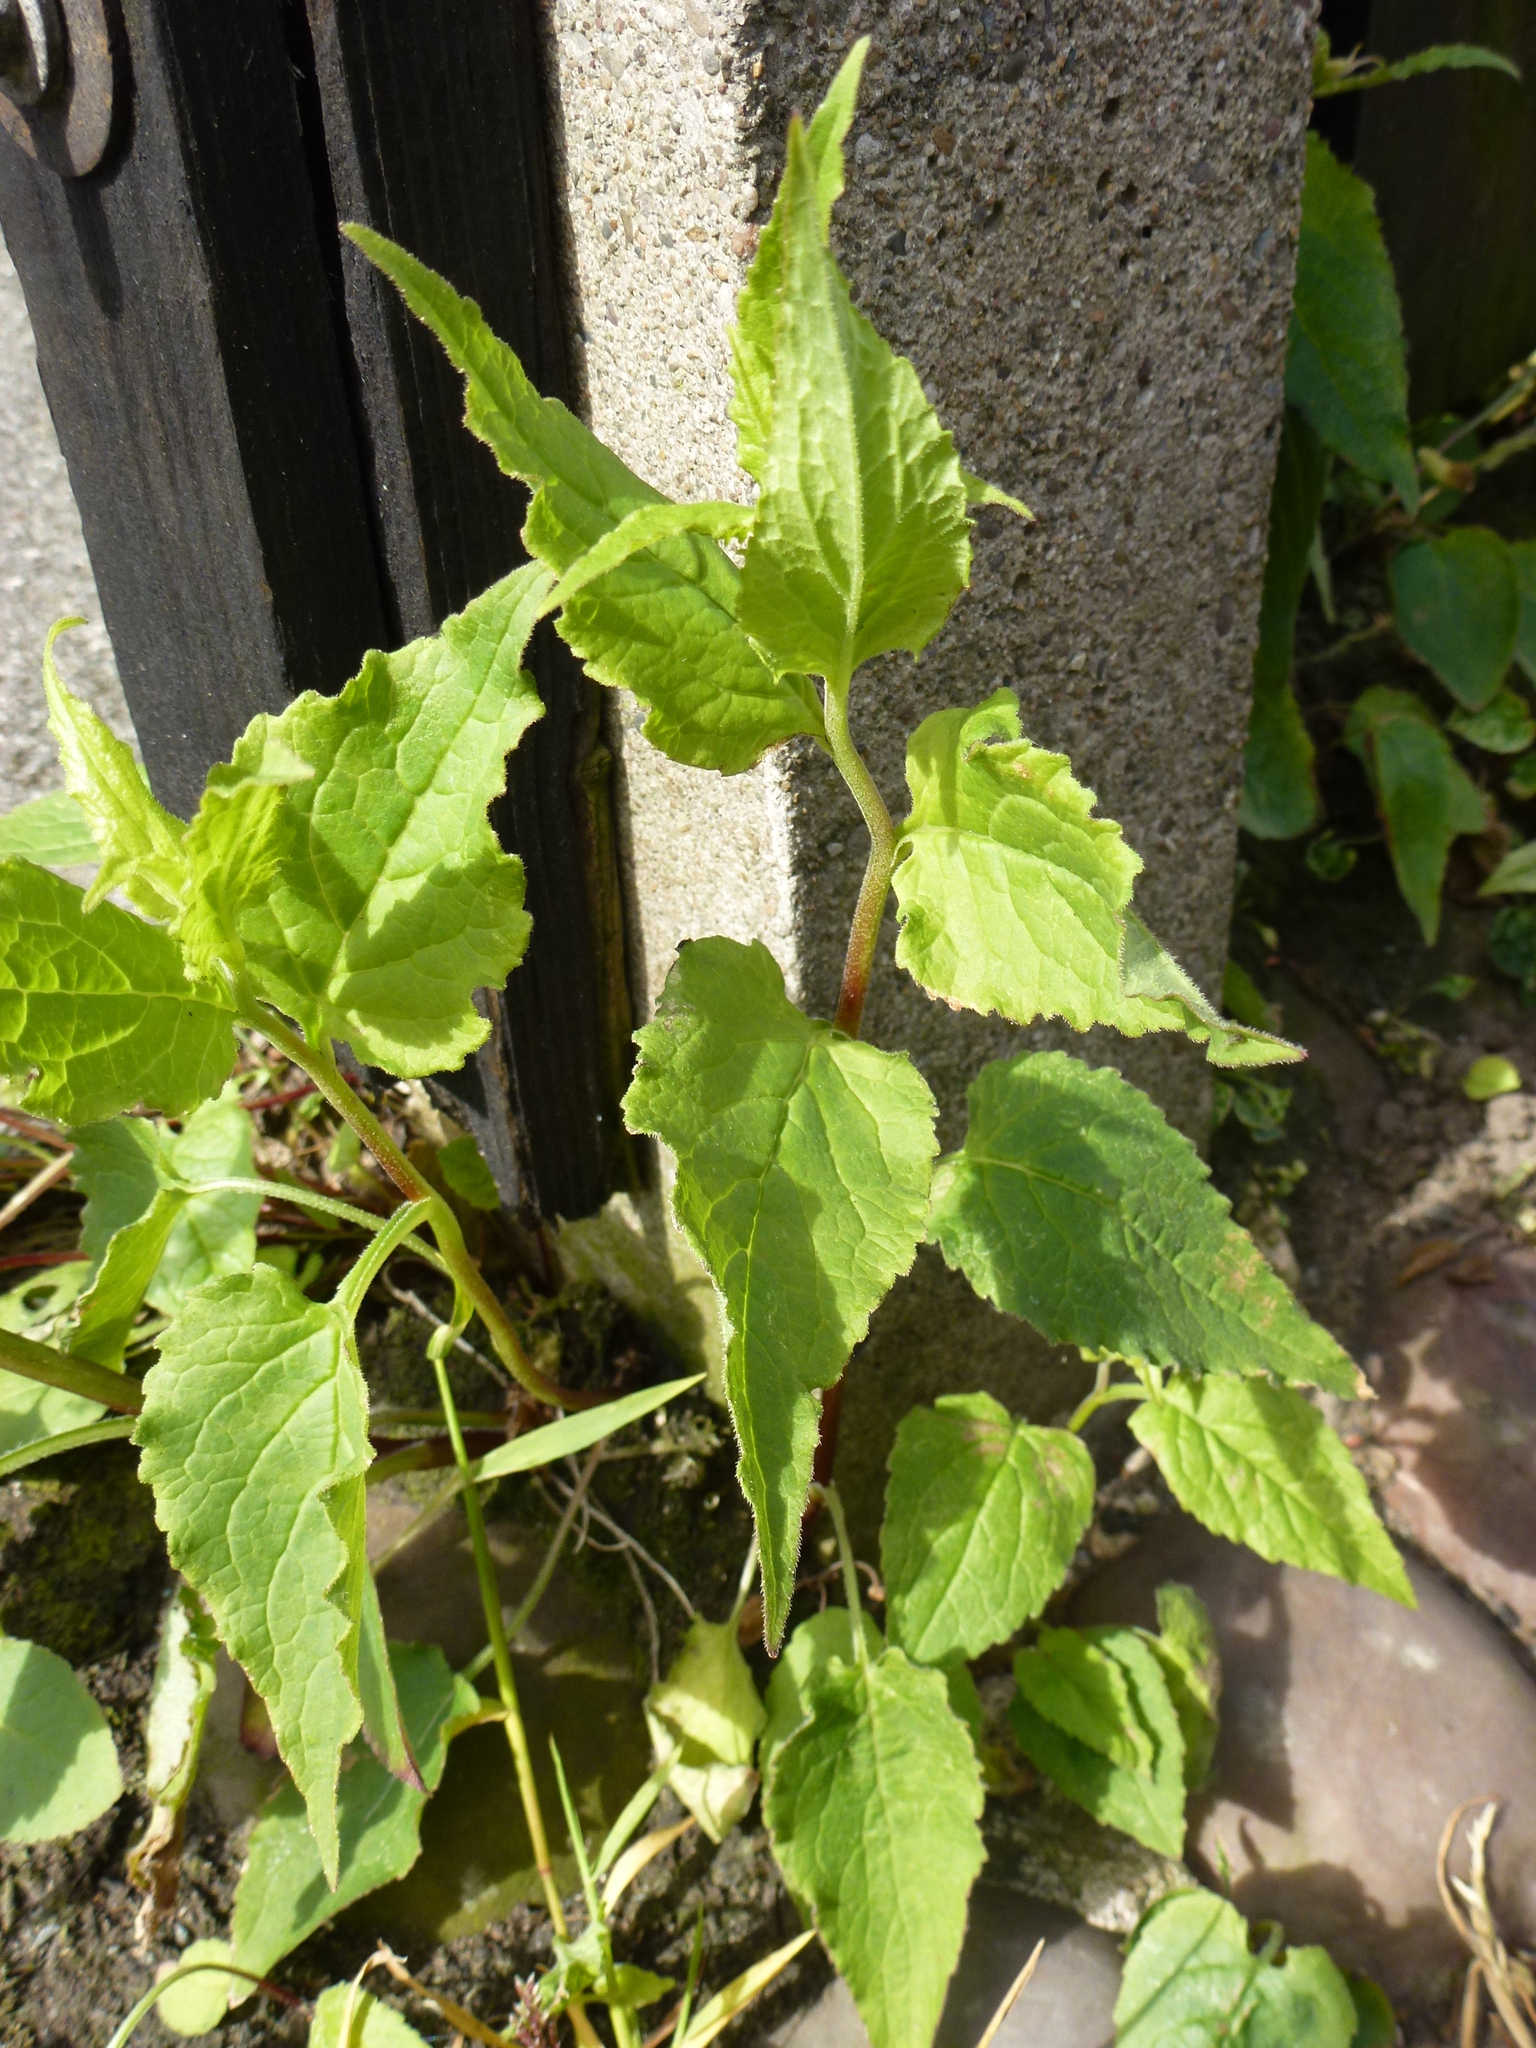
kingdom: Plantae
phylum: Tracheophyta
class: Magnoliopsida
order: Asterales
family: Campanulaceae
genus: Campanula
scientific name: Campanula trachelium
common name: Nettle-leaved bellflower
